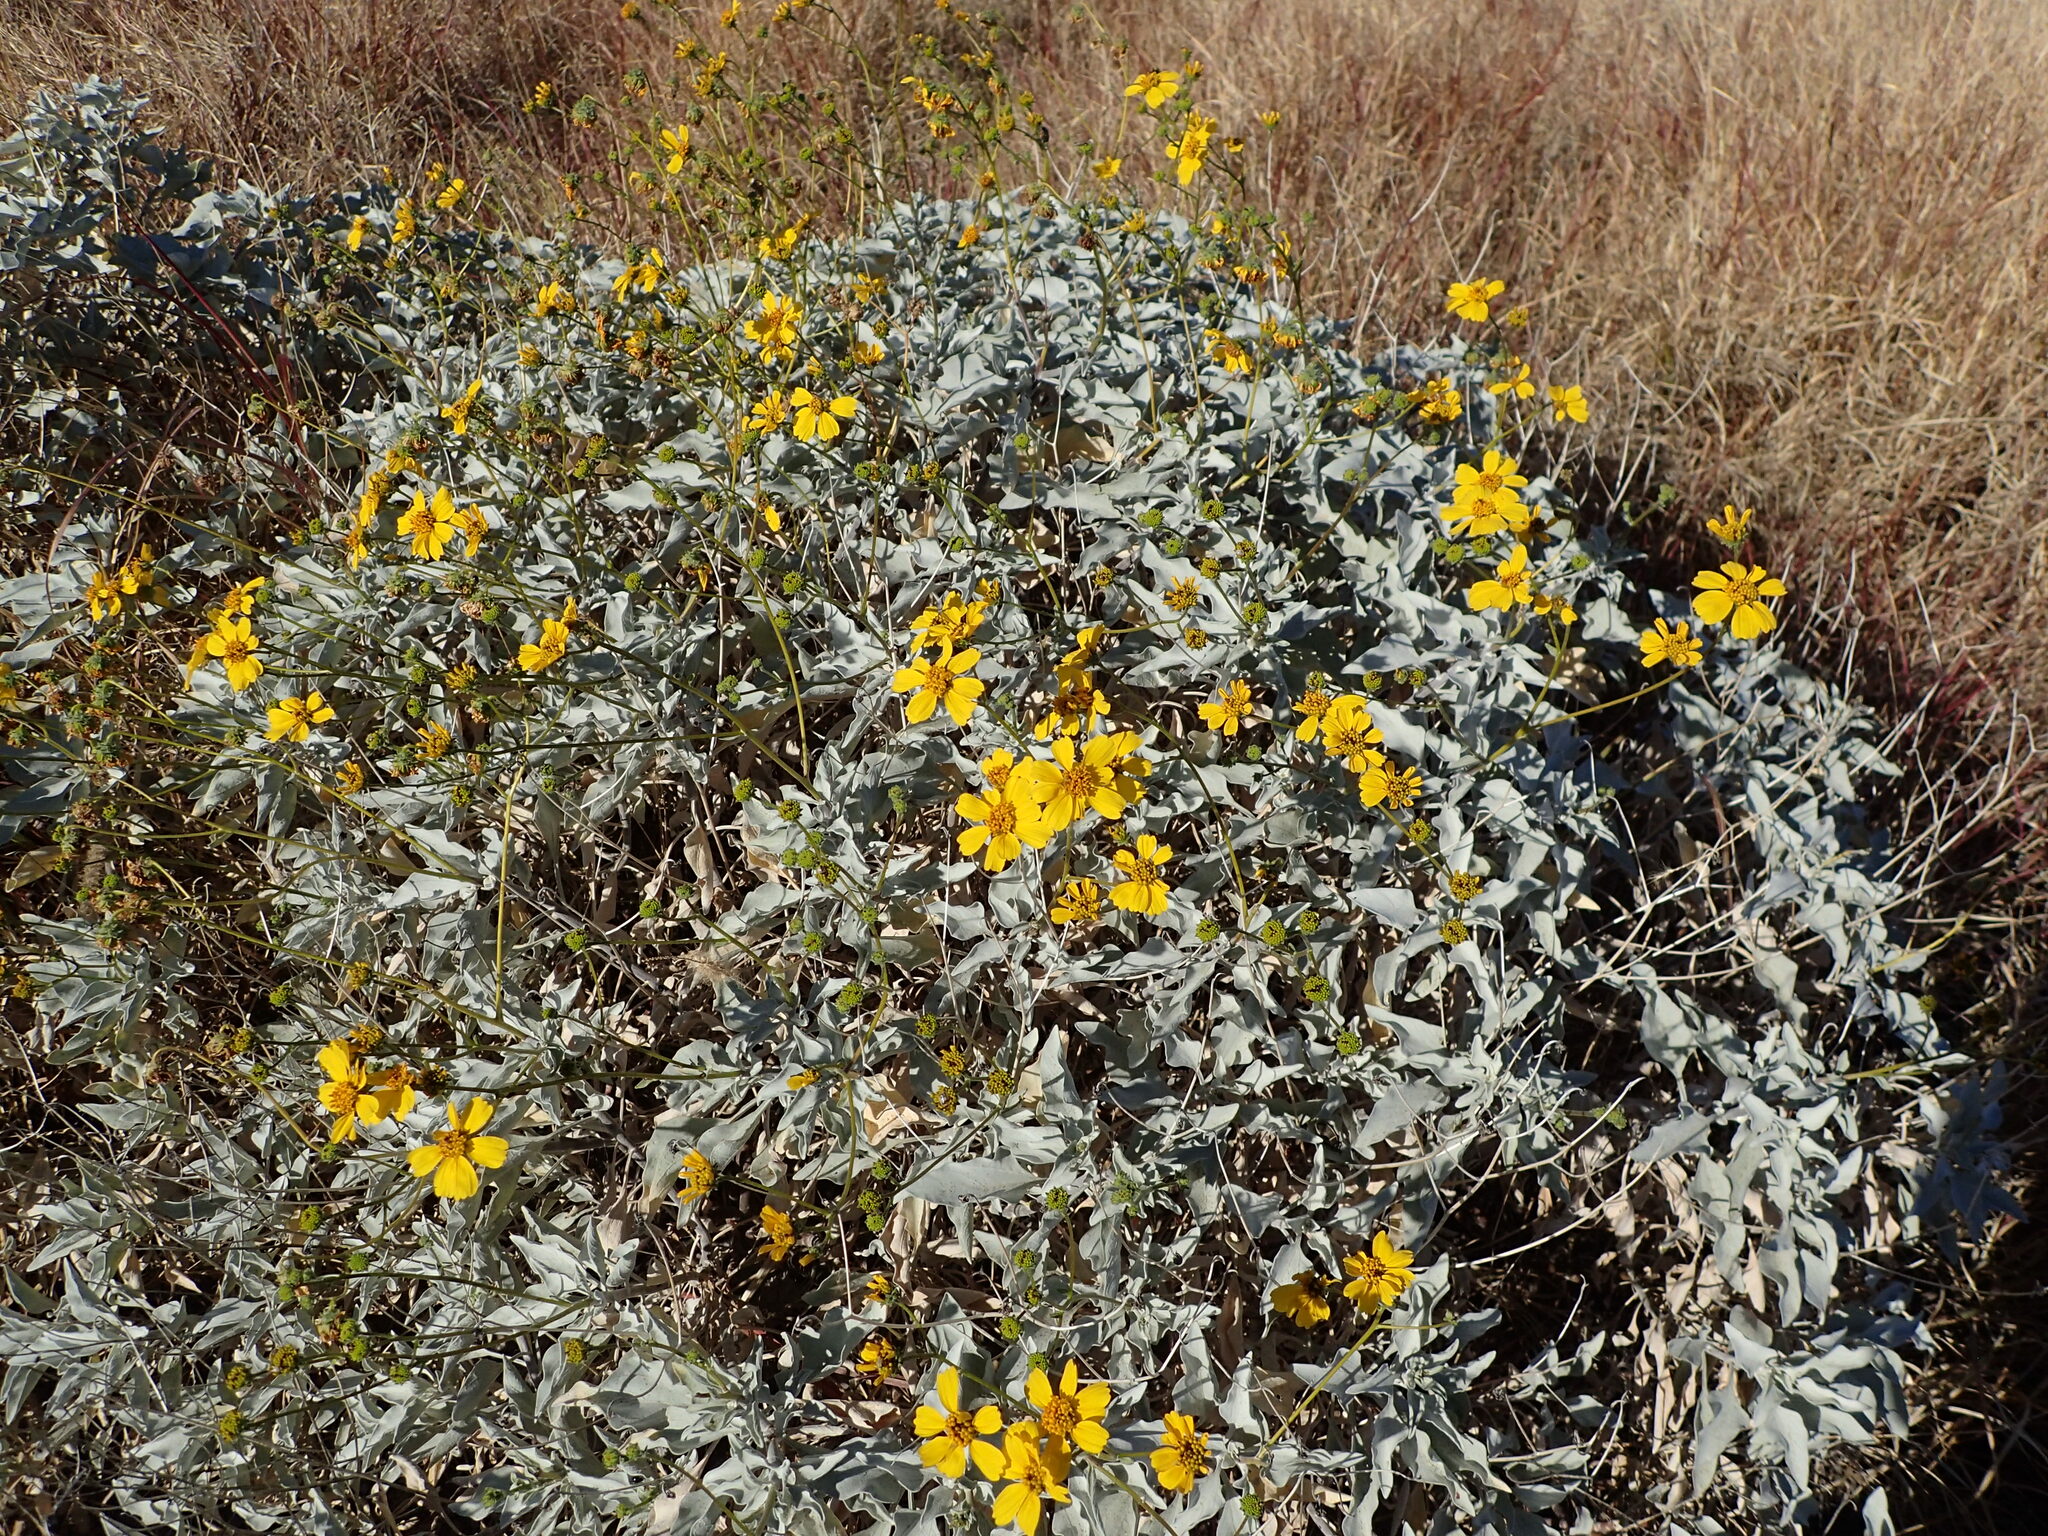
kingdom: Plantae
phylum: Tracheophyta
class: Magnoliopsida
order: Asterales
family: Asteraceae
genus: Encelia
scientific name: Encelia farinosa
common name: Brittlebush
